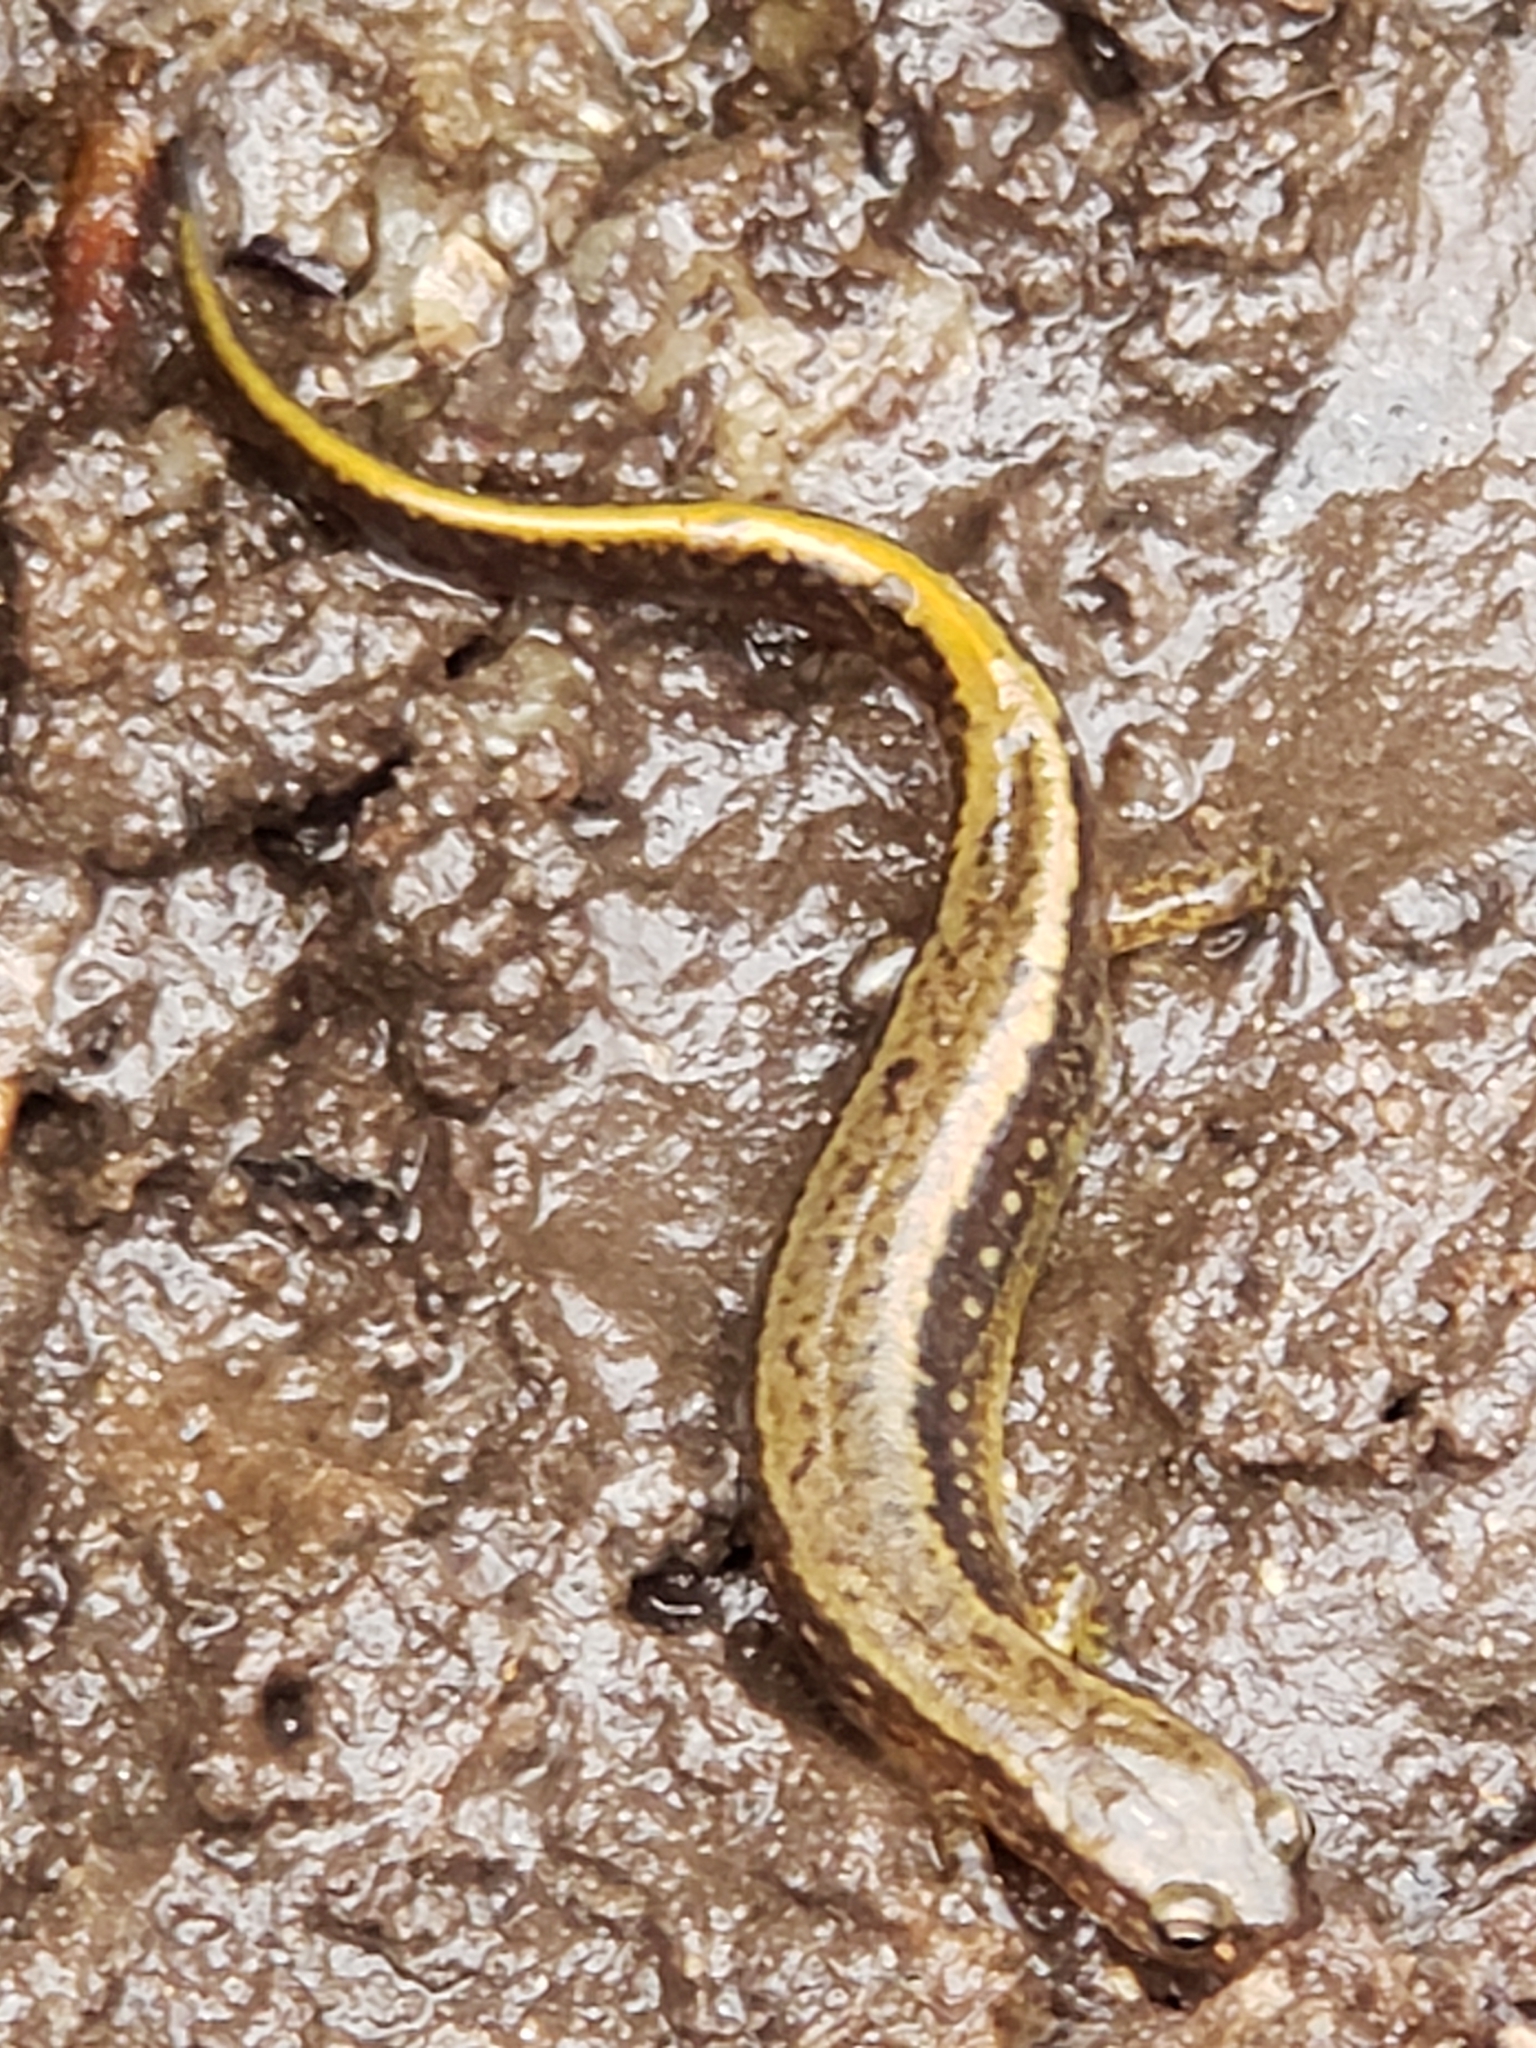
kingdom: Animalia
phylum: Chordata
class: Amphibia
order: Caudata
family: Plethodontidae
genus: Eurycea
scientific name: Eurycea bislineata
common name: Northern two-lined salamander
